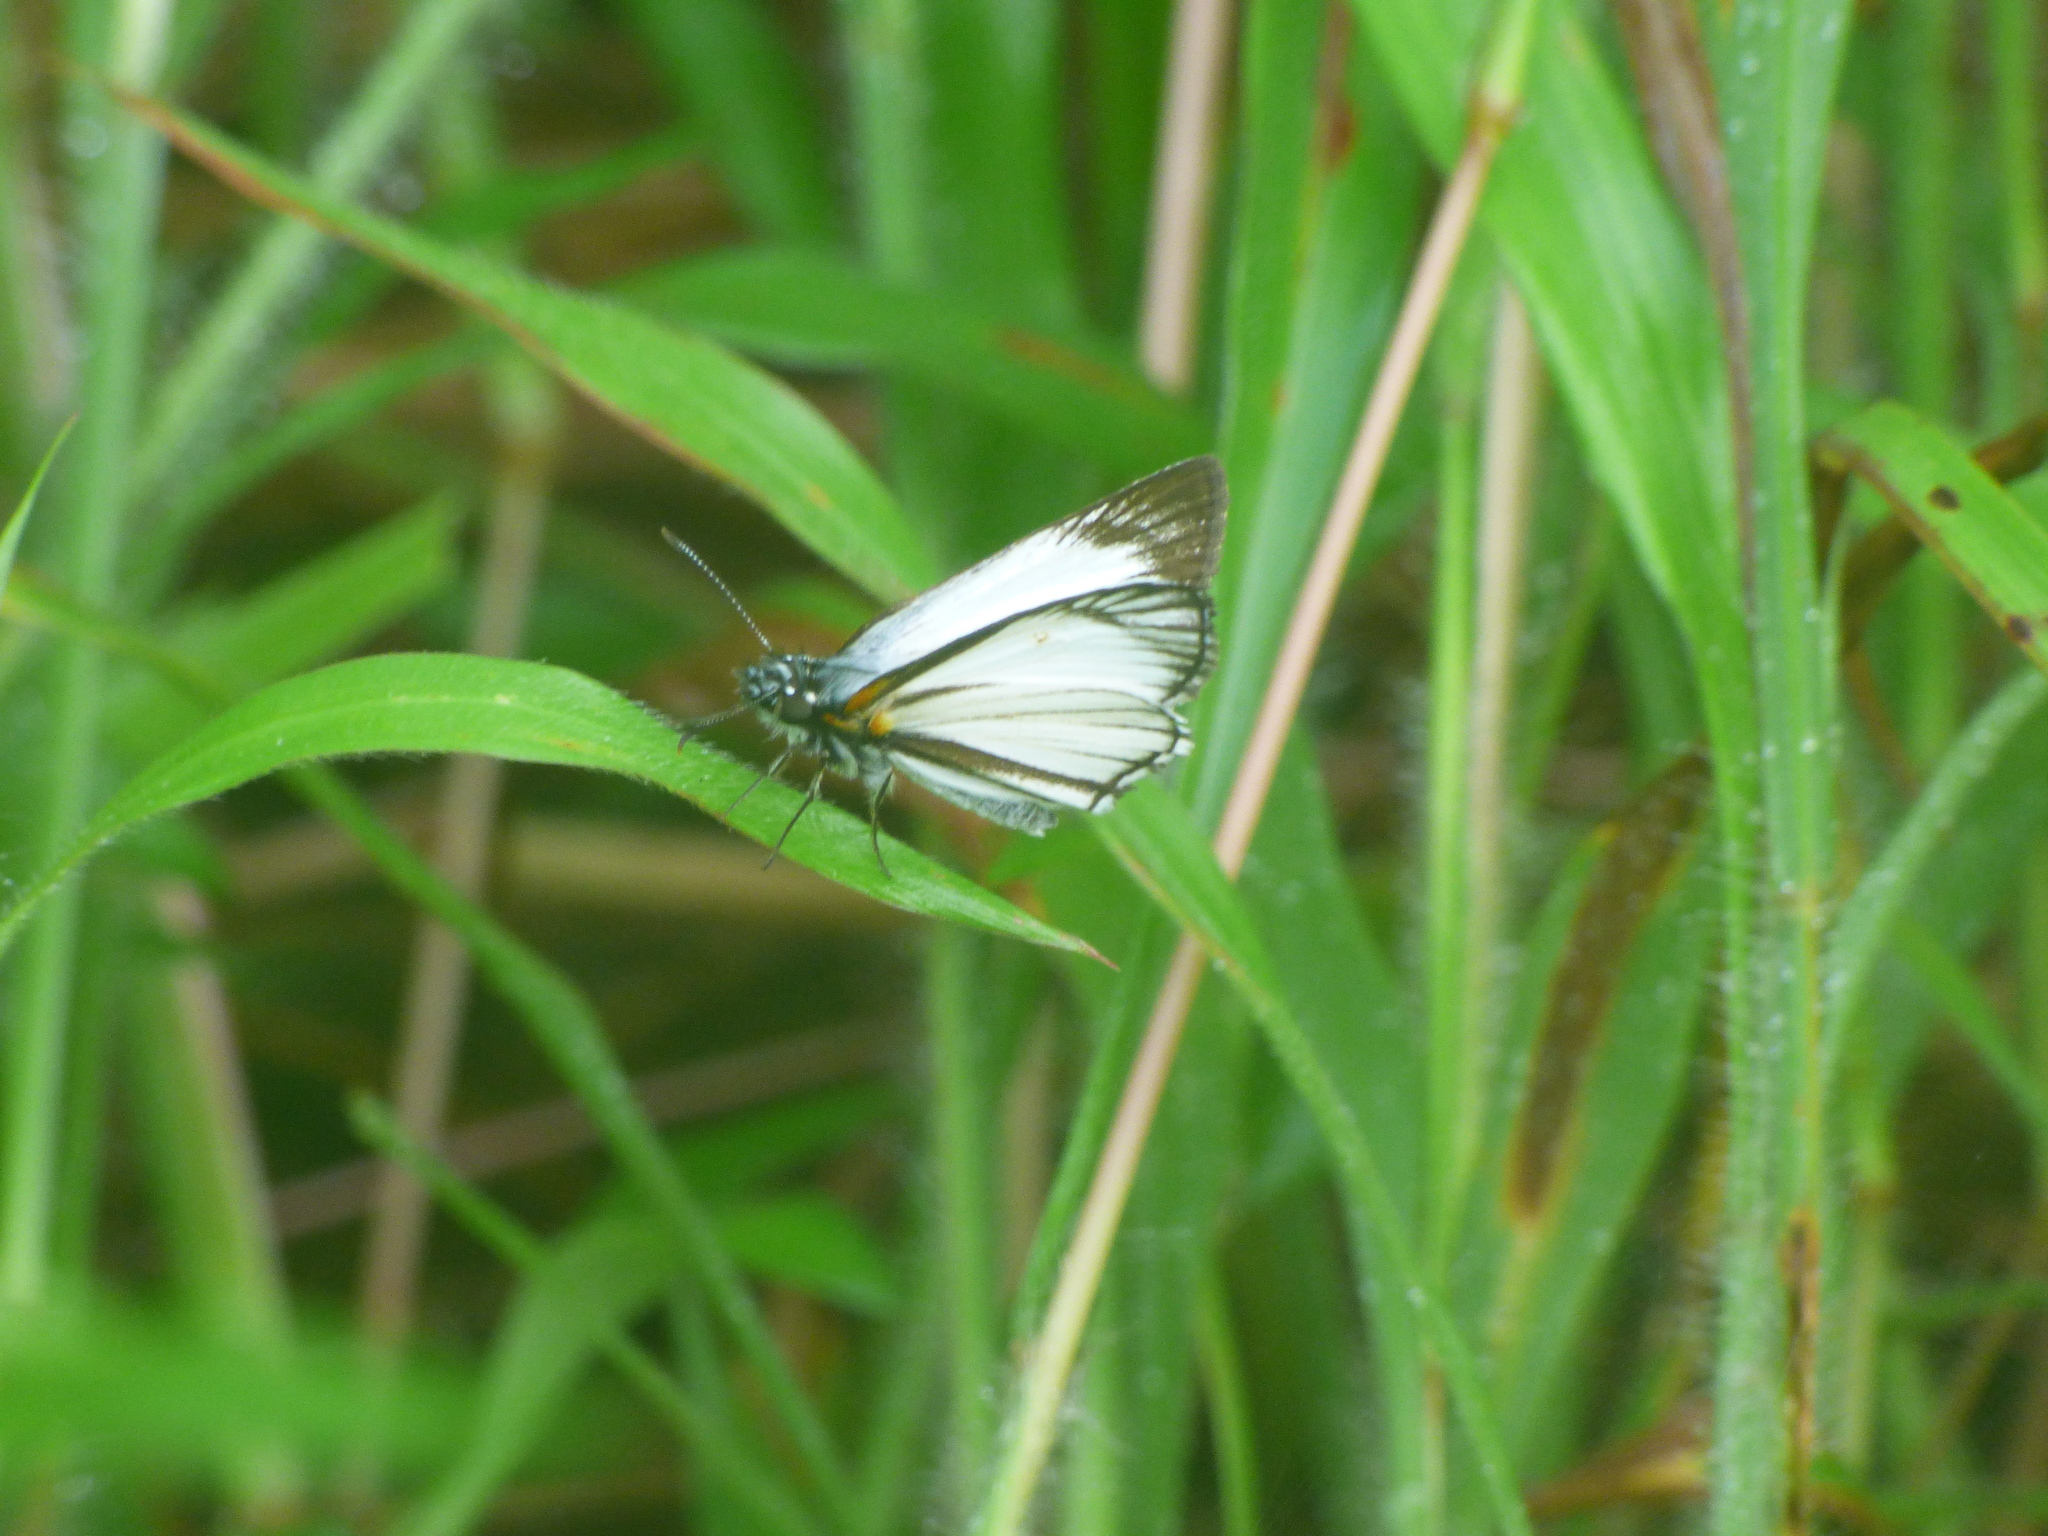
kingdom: Animalia
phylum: Arthropoda
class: Insecta
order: Lepidoptera
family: Hesperiidae
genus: Heliopetes
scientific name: Heliopetes arsalte
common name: Veined white-skipper
